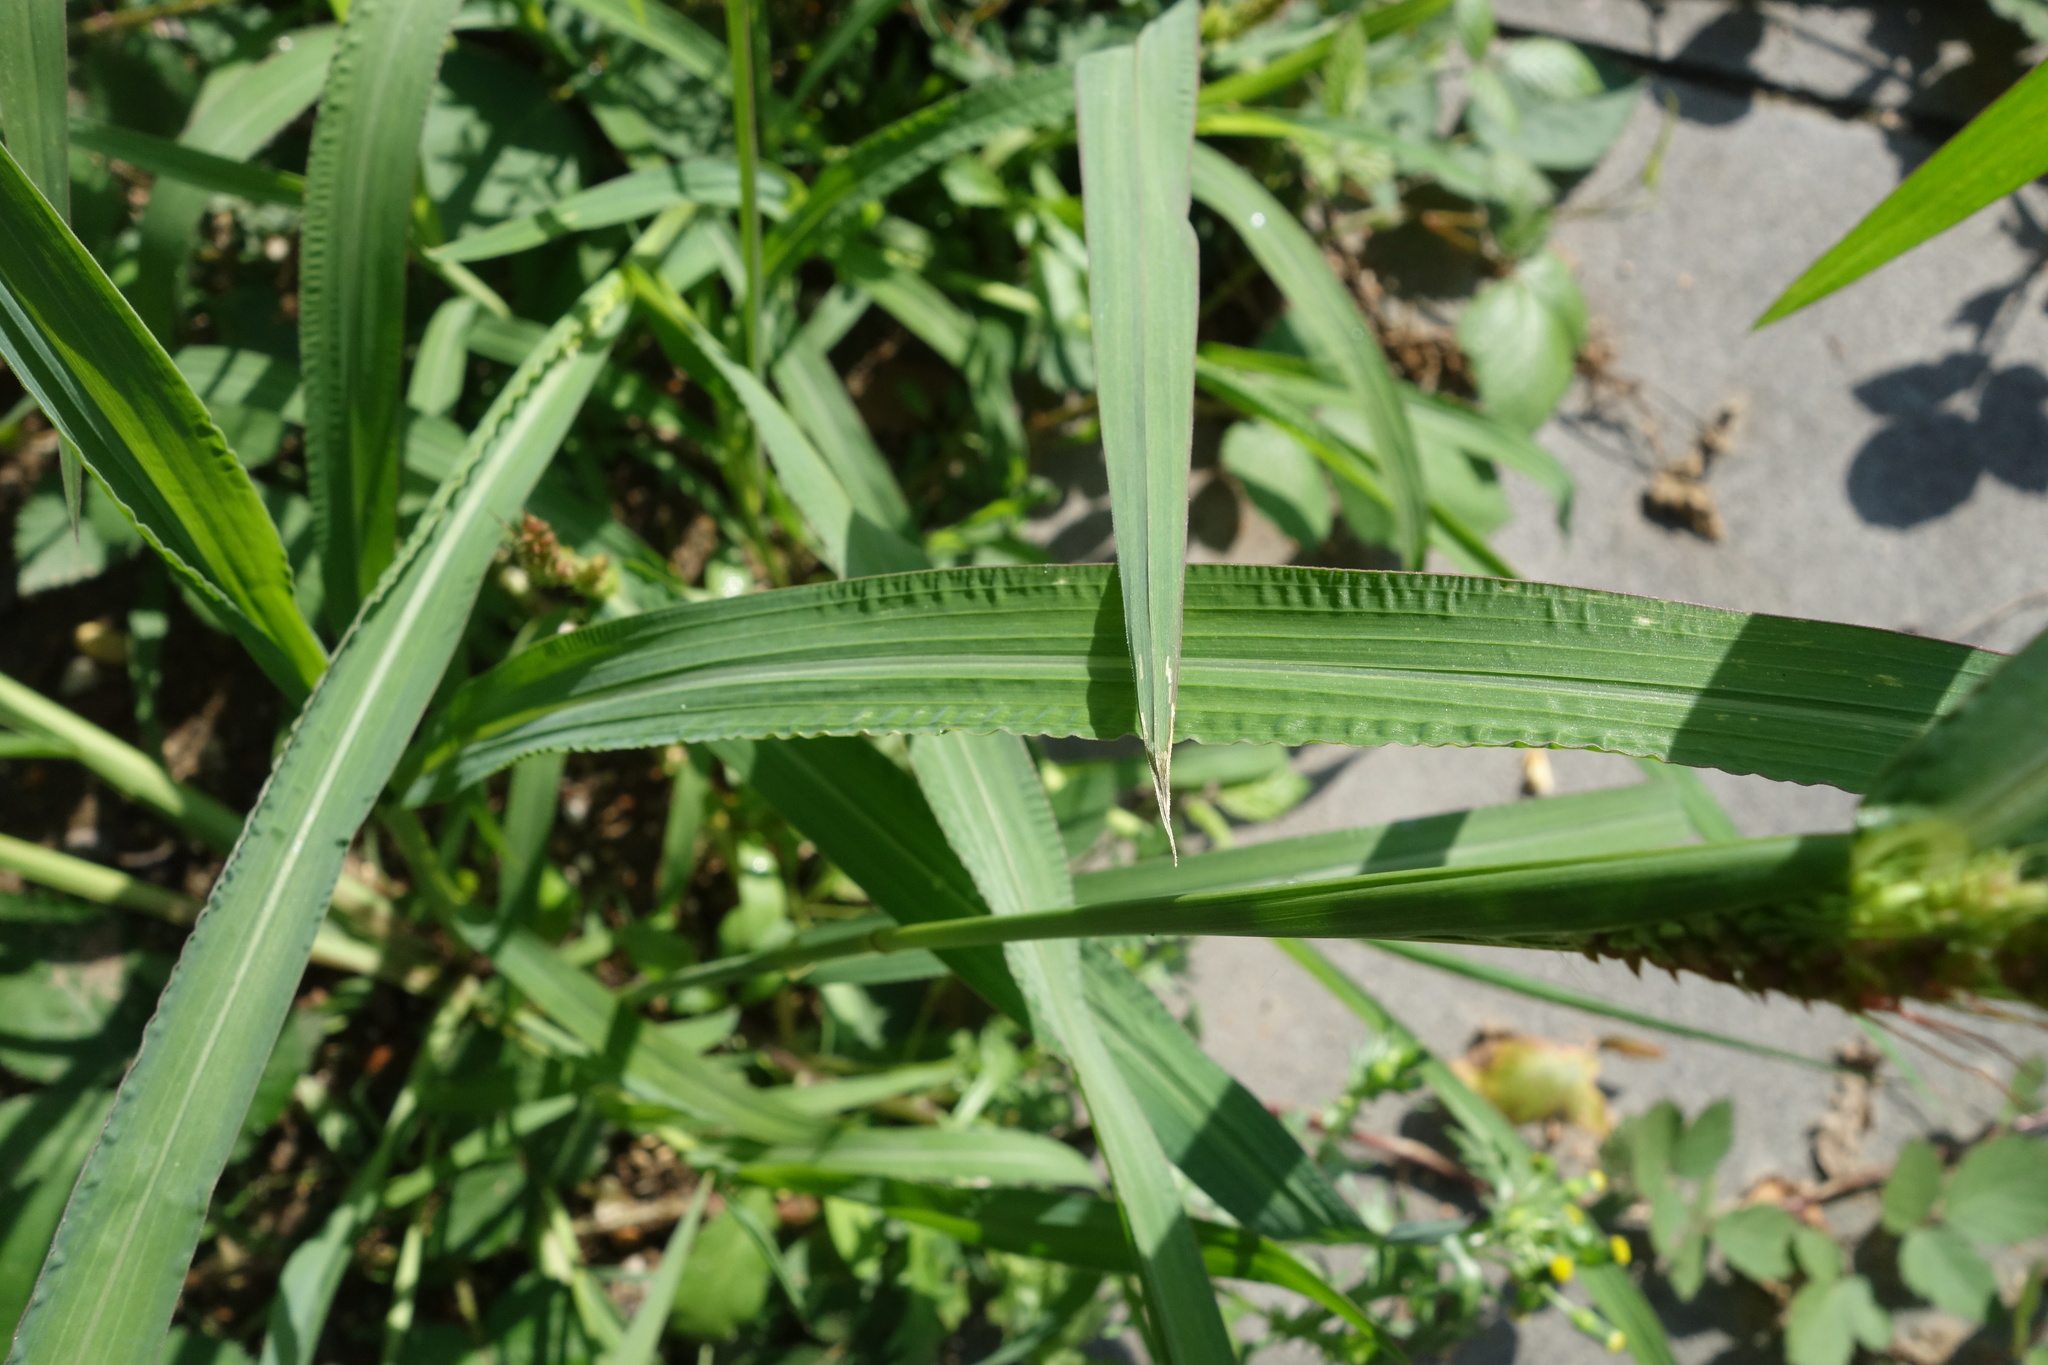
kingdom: Plantae
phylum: Tracheophyta
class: Liliopsida
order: Poales
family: Poaceae
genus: Echinochloa
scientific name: Echinochloa crus-galli
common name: Cockspur
